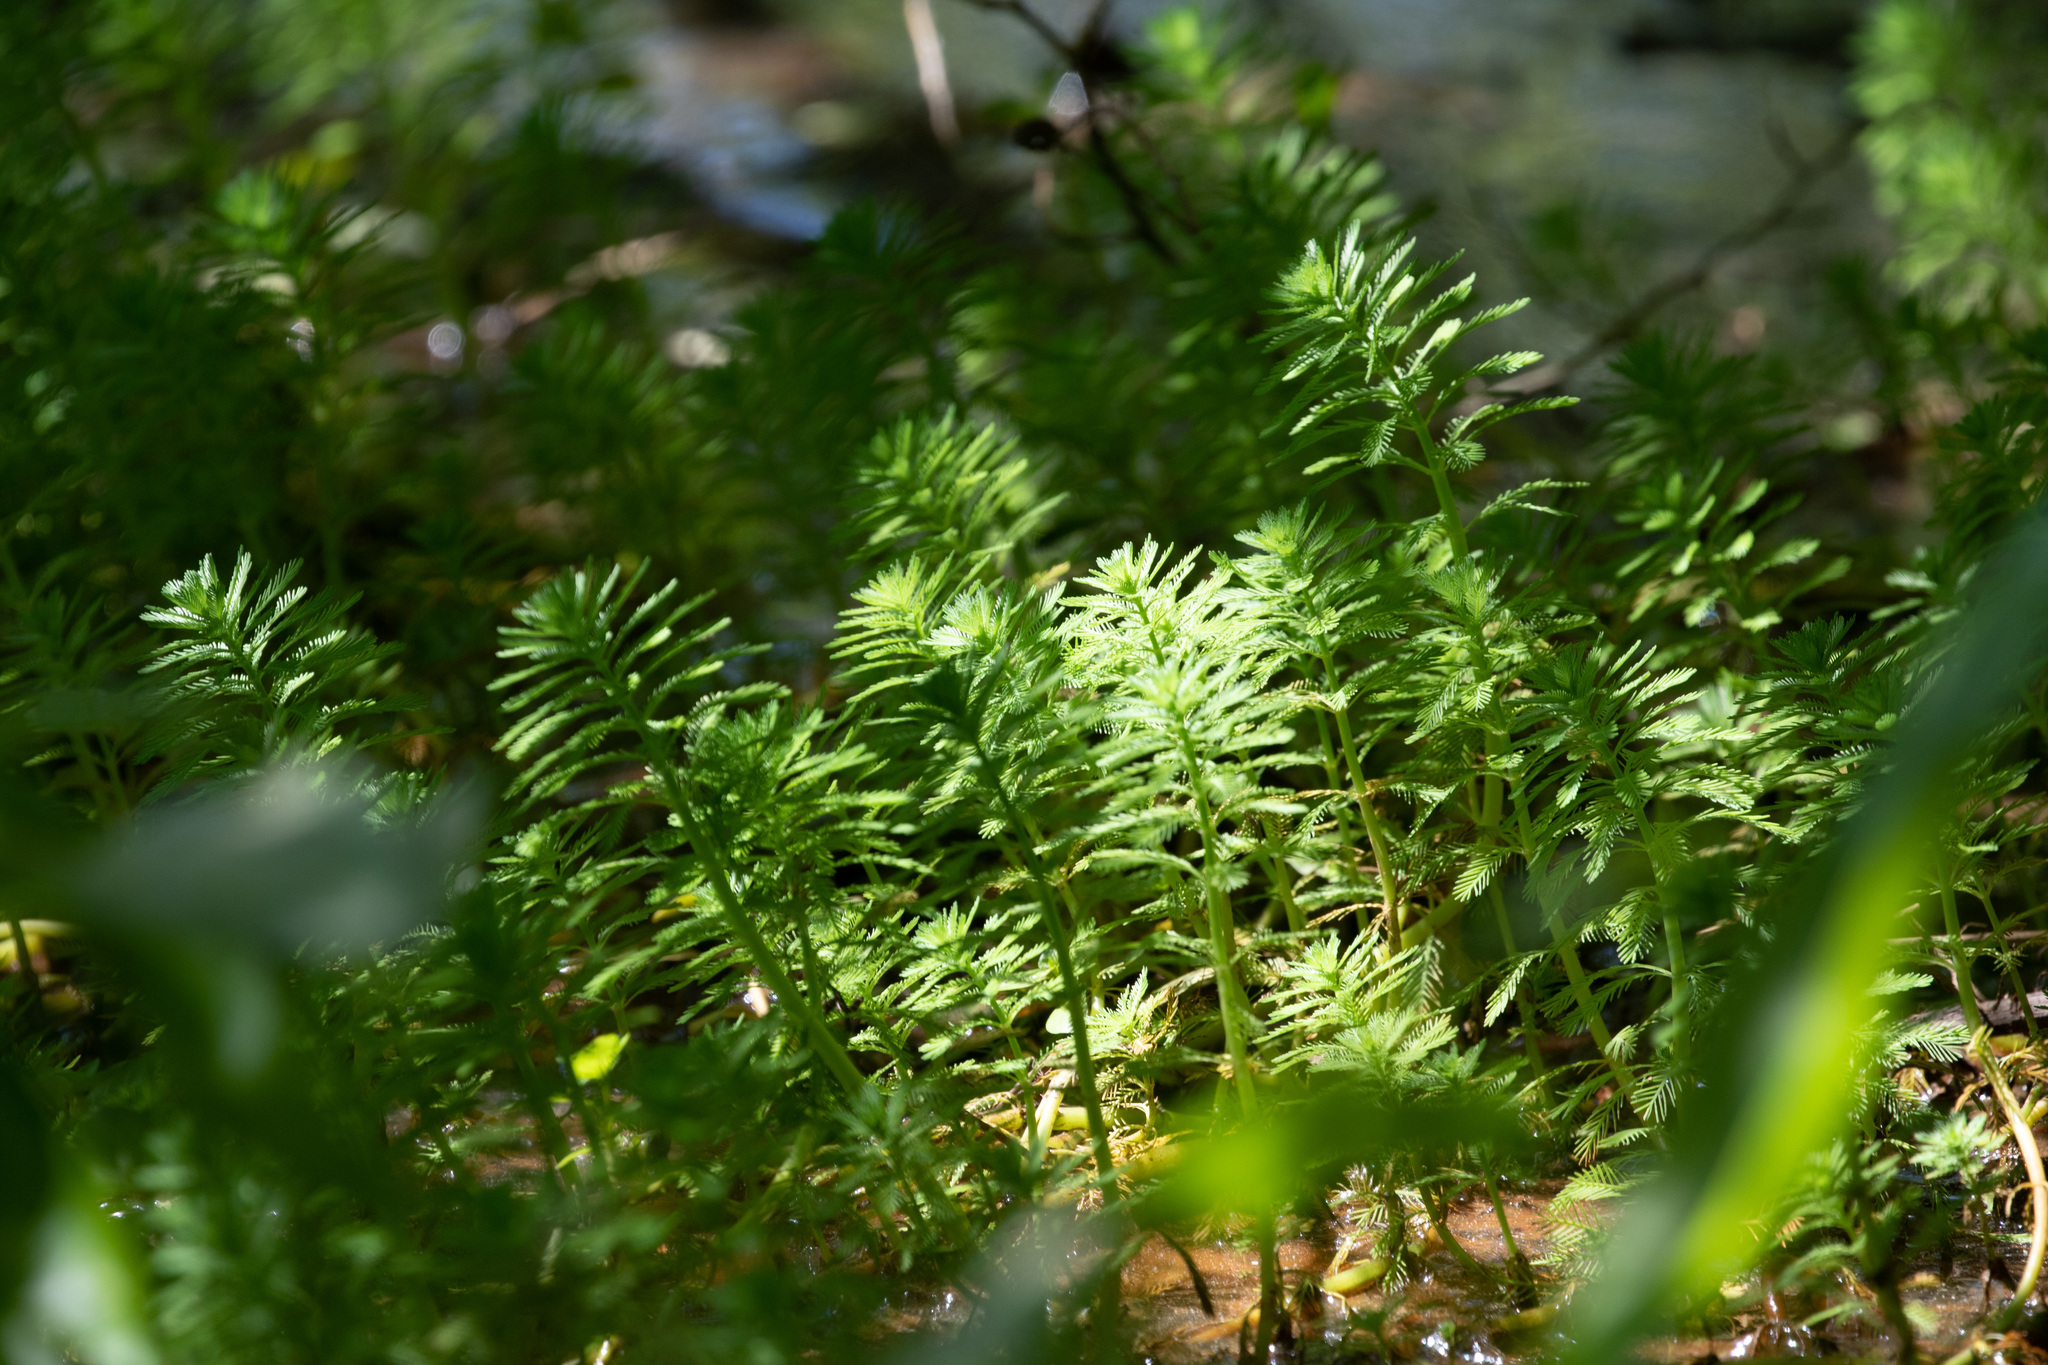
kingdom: Plantae
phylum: Tracheophyta
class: Magnoliopsida
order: Saxifragales
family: Haloragaceae
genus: Myriophyllum
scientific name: Myriophyllum aquaticum
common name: Parrot's feather
